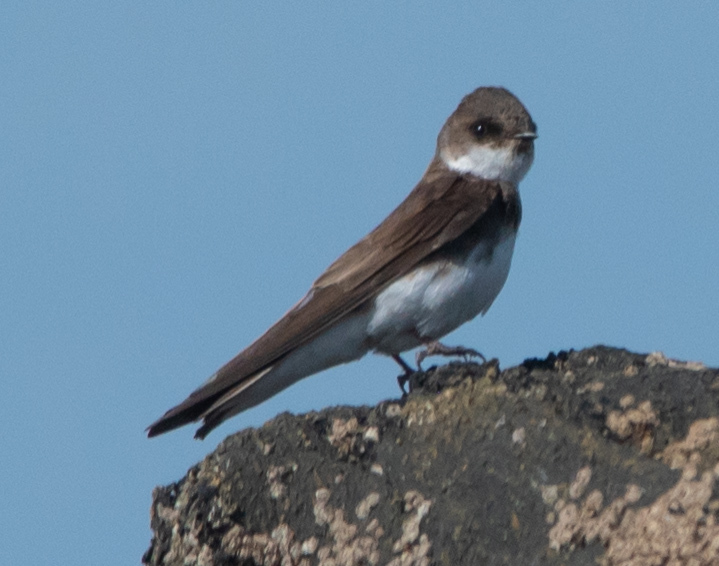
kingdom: Animalia
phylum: Chordata
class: Aves
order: Passeriformes
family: Hirundinidae
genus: Riparia
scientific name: Riparia riparia
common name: Sand martin
